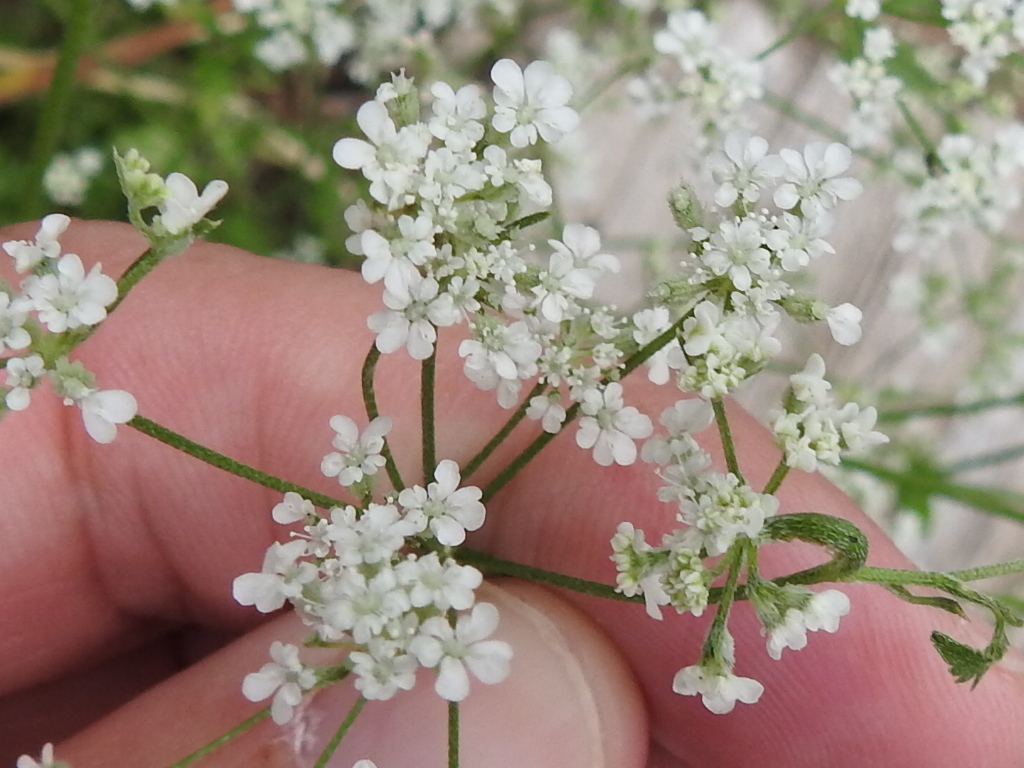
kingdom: Plantae
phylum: Tracheophyta
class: Magnoliopsida
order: Apiales
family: Apiaceae
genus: Torilis
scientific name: Torilis arvensis
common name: Spreading hedge-parsley
